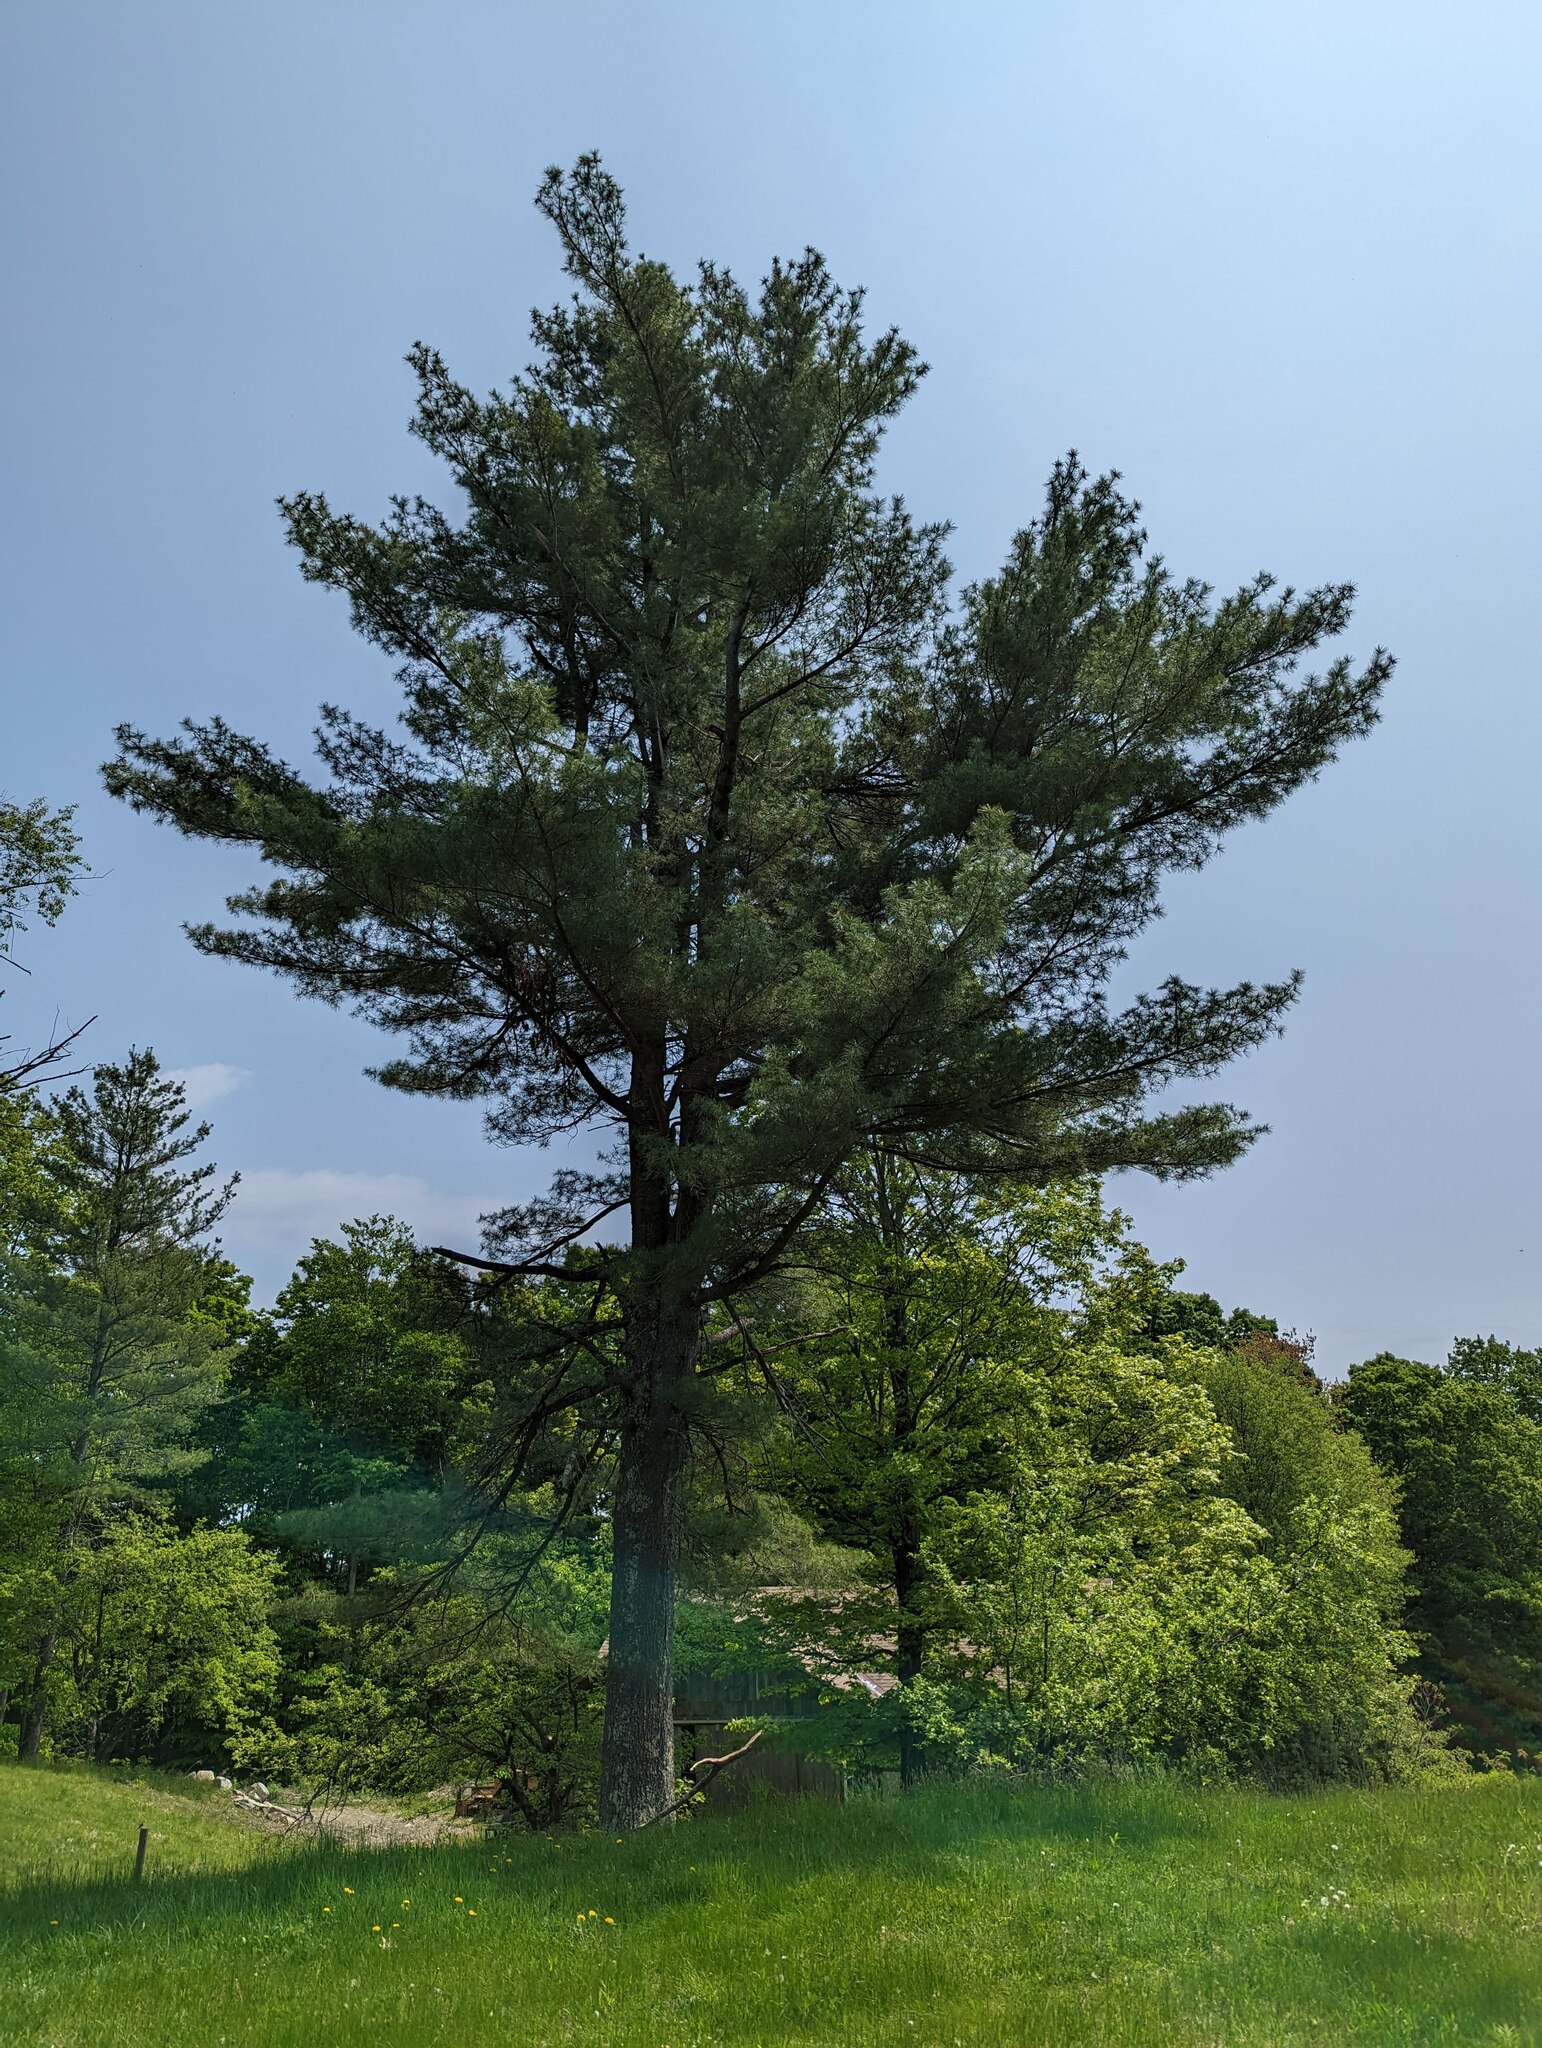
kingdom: Plantae
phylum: Tracheophyta
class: Pinopsida
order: Pinales
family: Pinaceae
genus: Pinus
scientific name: Pinus strobus
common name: Weymouth pine
